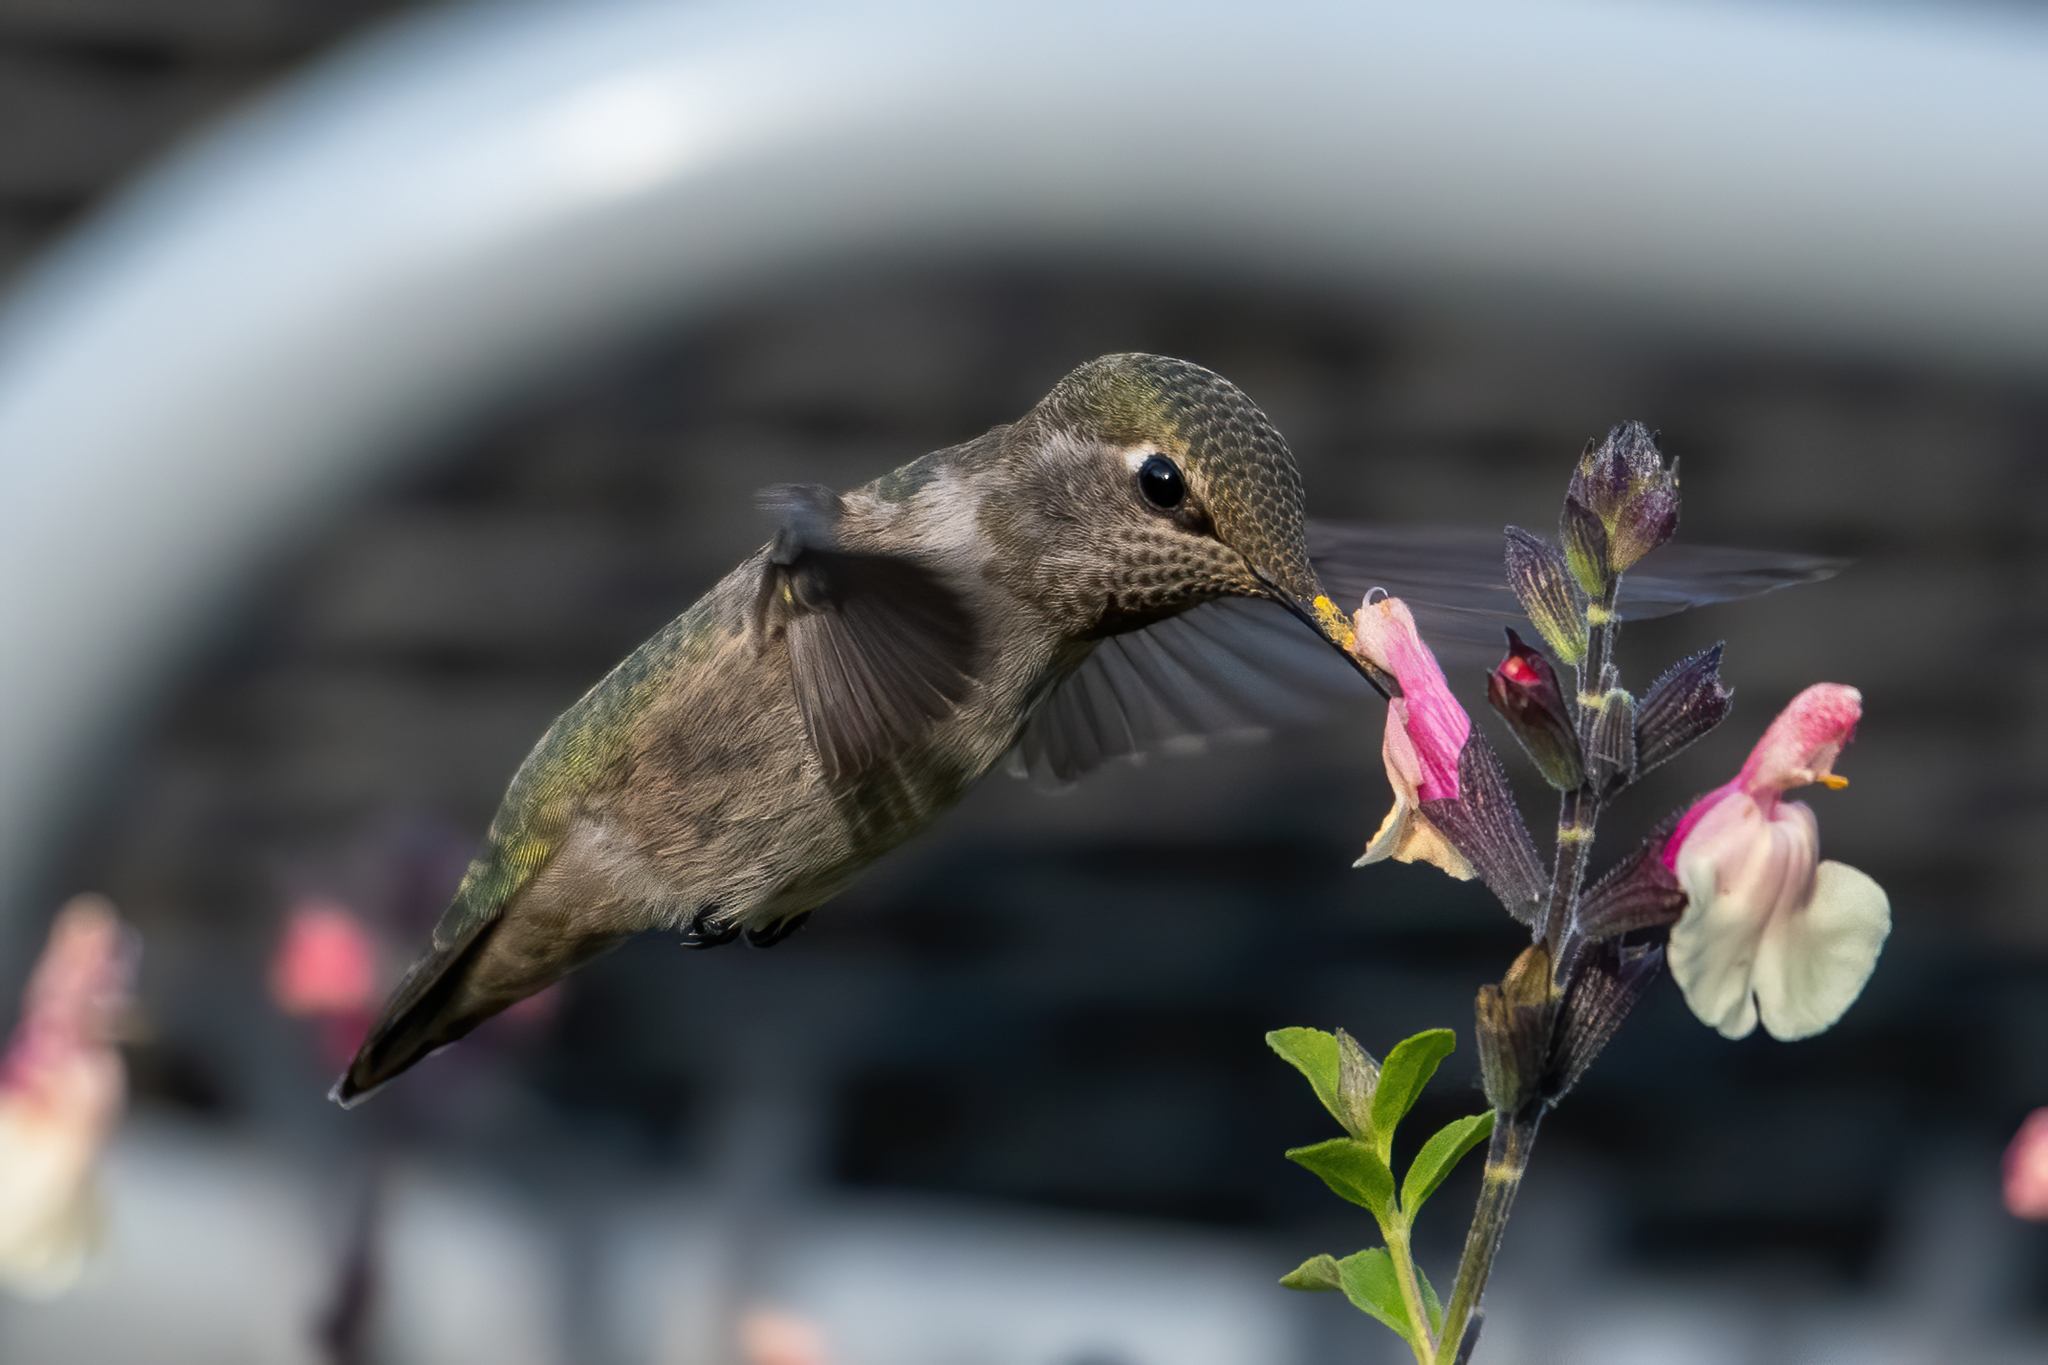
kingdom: Animalia
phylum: Chordata
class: Aves
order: Apodiformes
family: Trochilidae
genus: Calypte
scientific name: Calypte anna
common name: Anna's hummingbird
